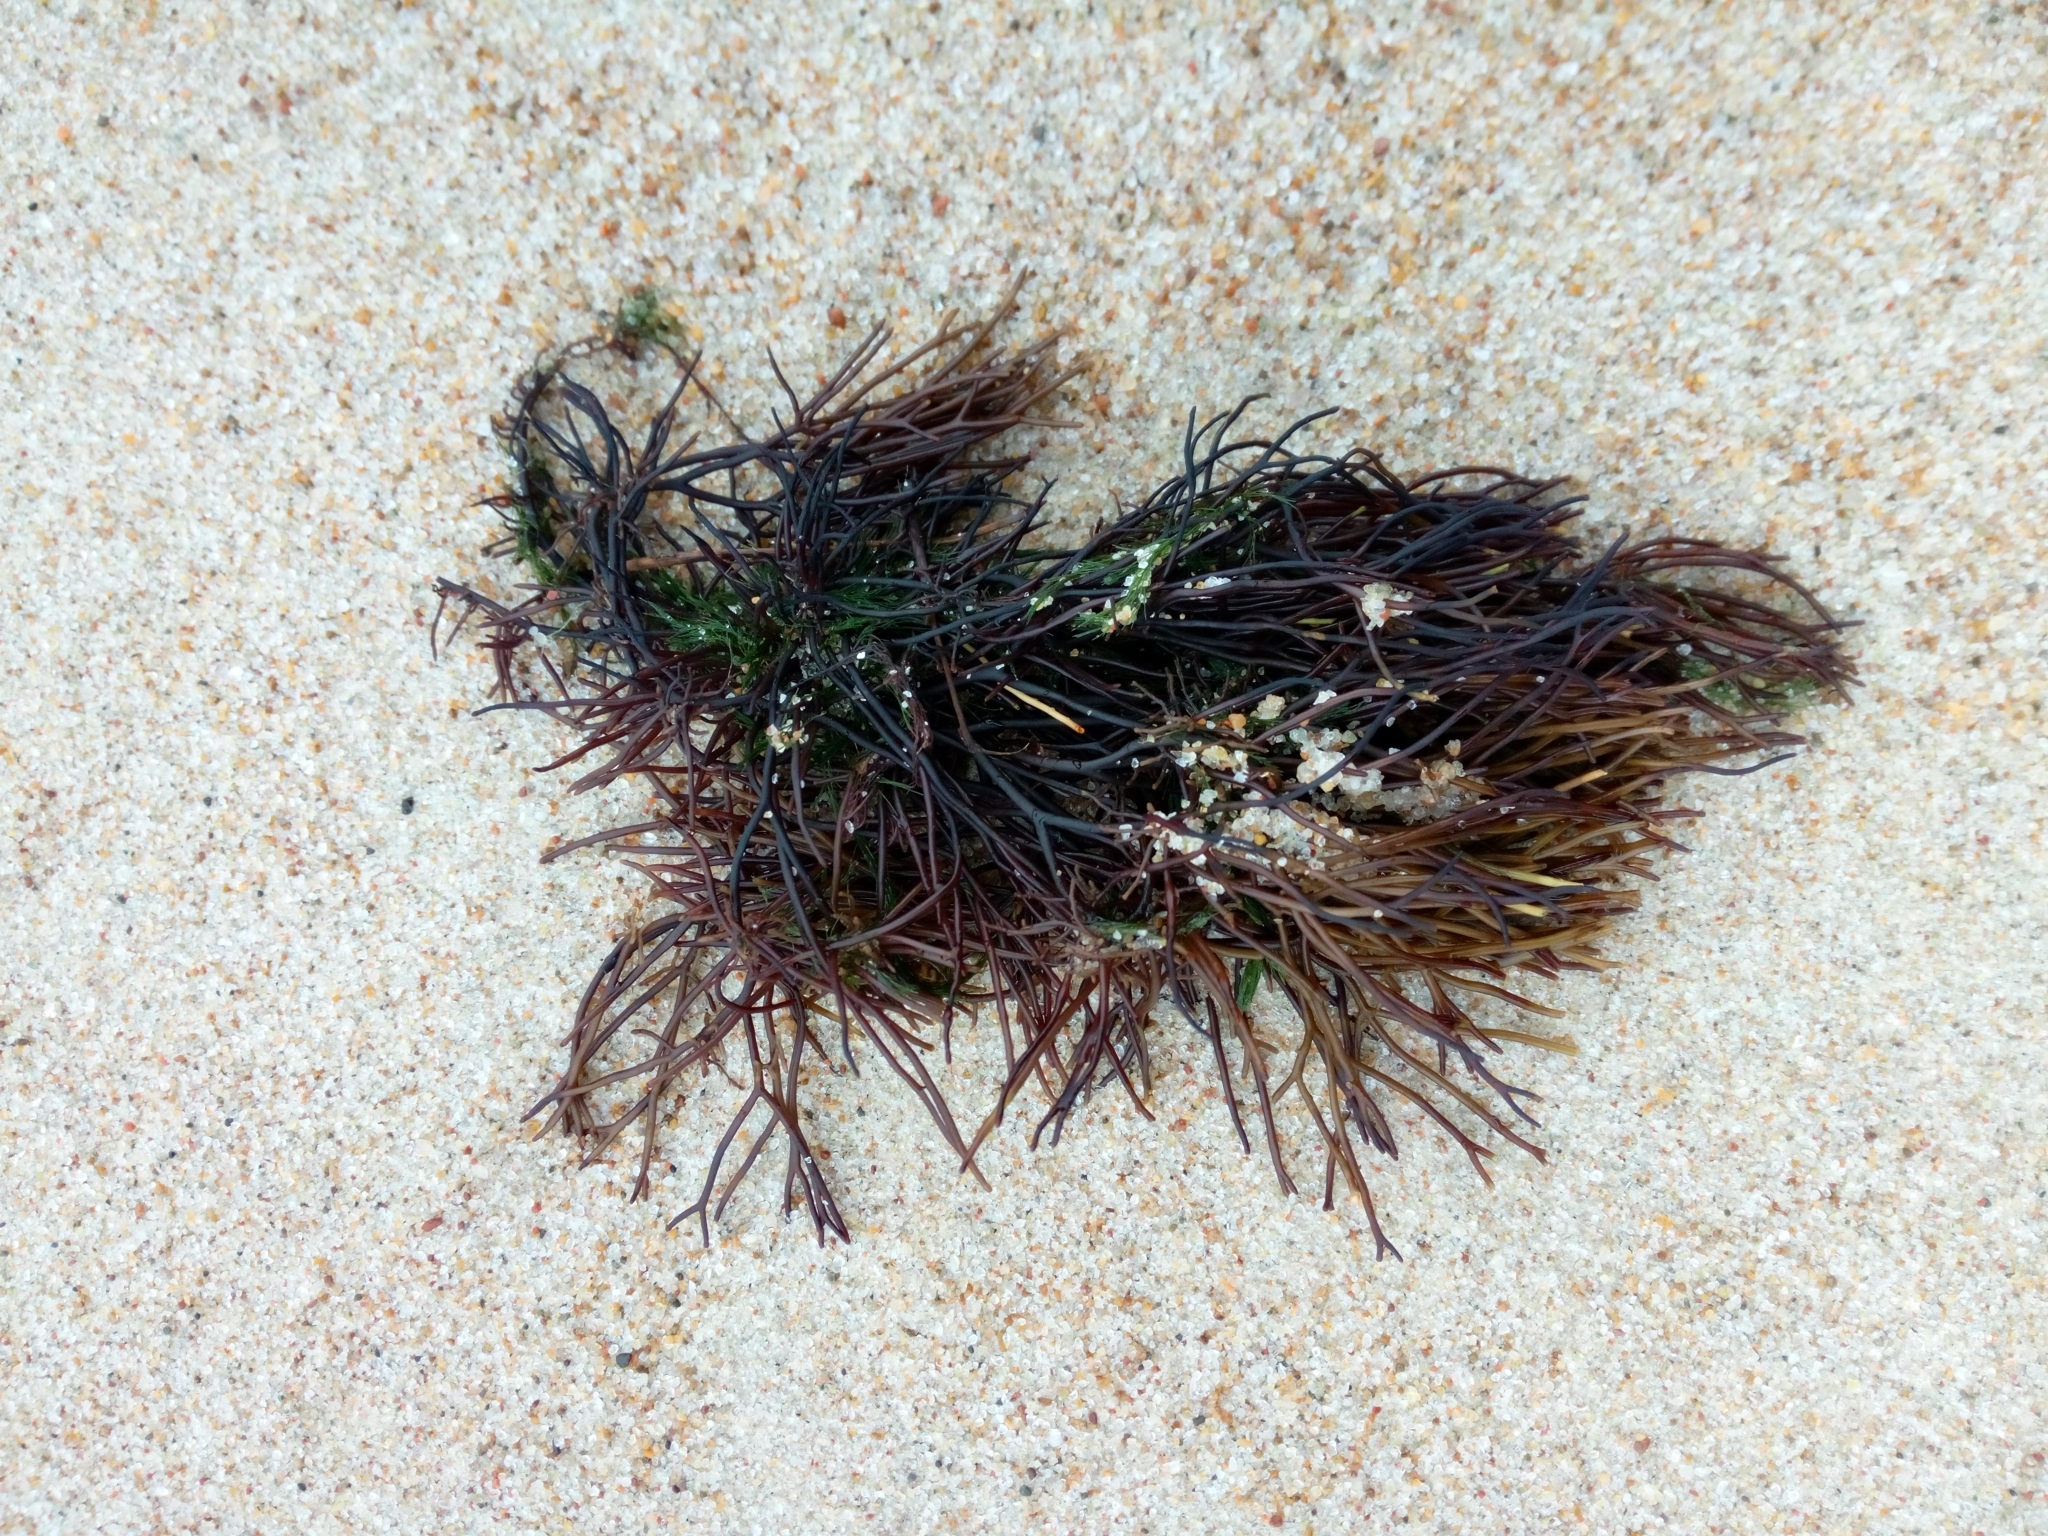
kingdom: Plantae
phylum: Rhodophyta
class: Florideophyceae
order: Gigartinales
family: Furcellariaceae
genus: Furcellaria
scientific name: Furcellaria lumbricalis
